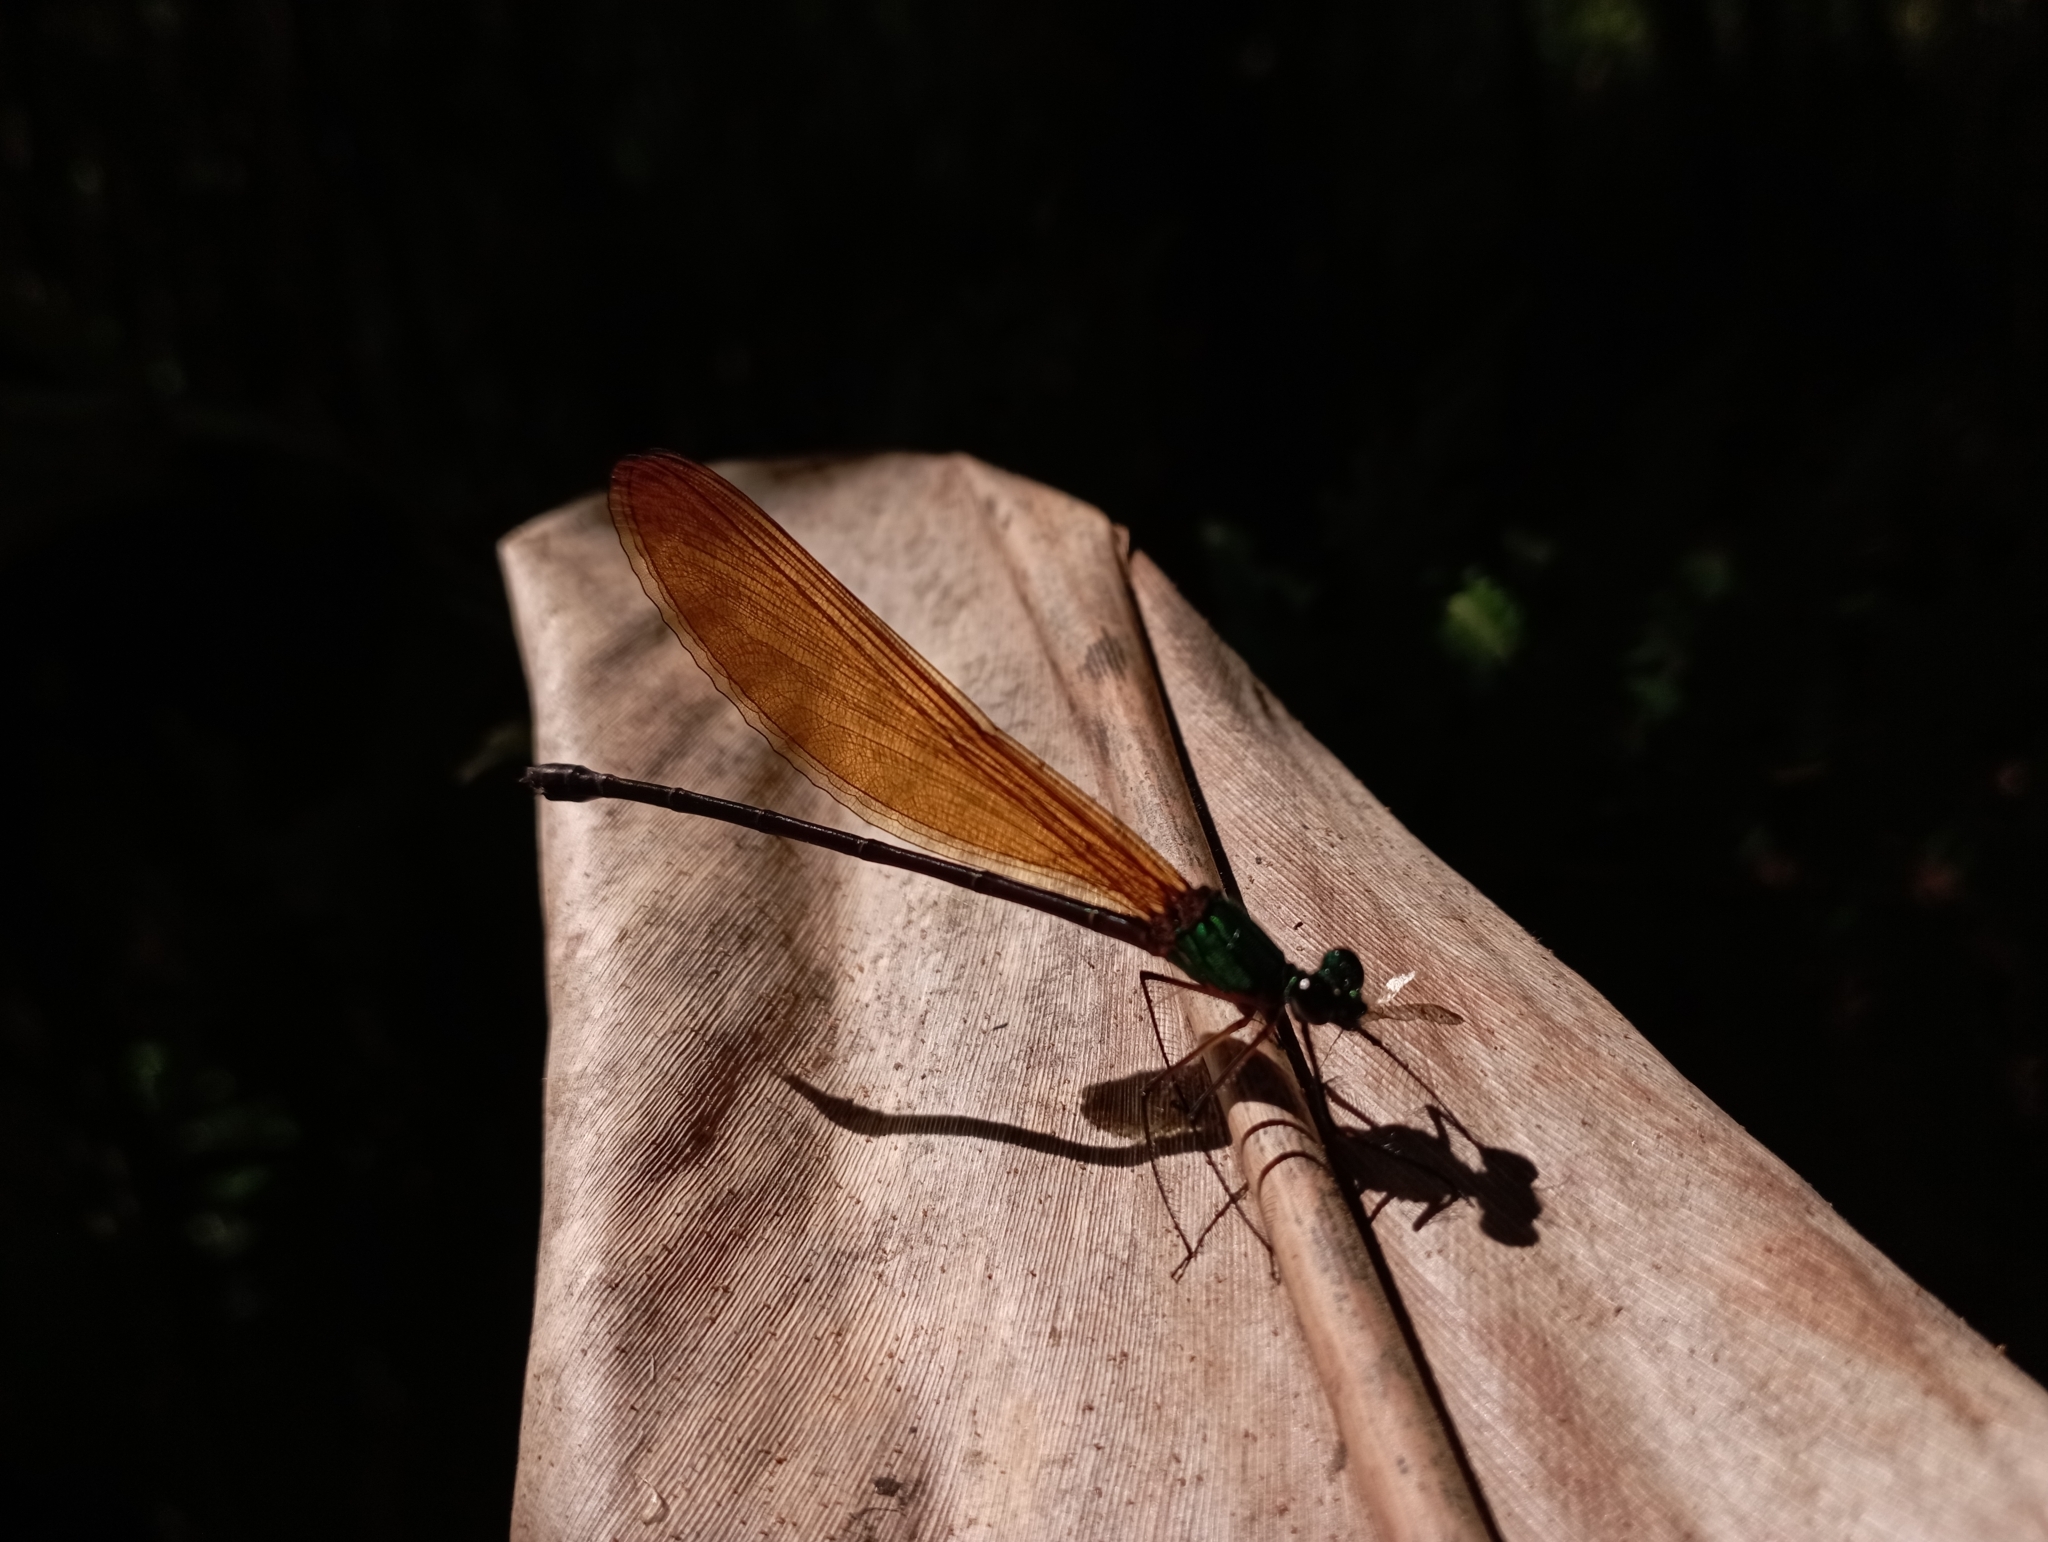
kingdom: Animalia
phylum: Arthropoda
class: Insecta
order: Odonata
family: Calopterygidae
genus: Vestalis
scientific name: Vestalis luctuosa
